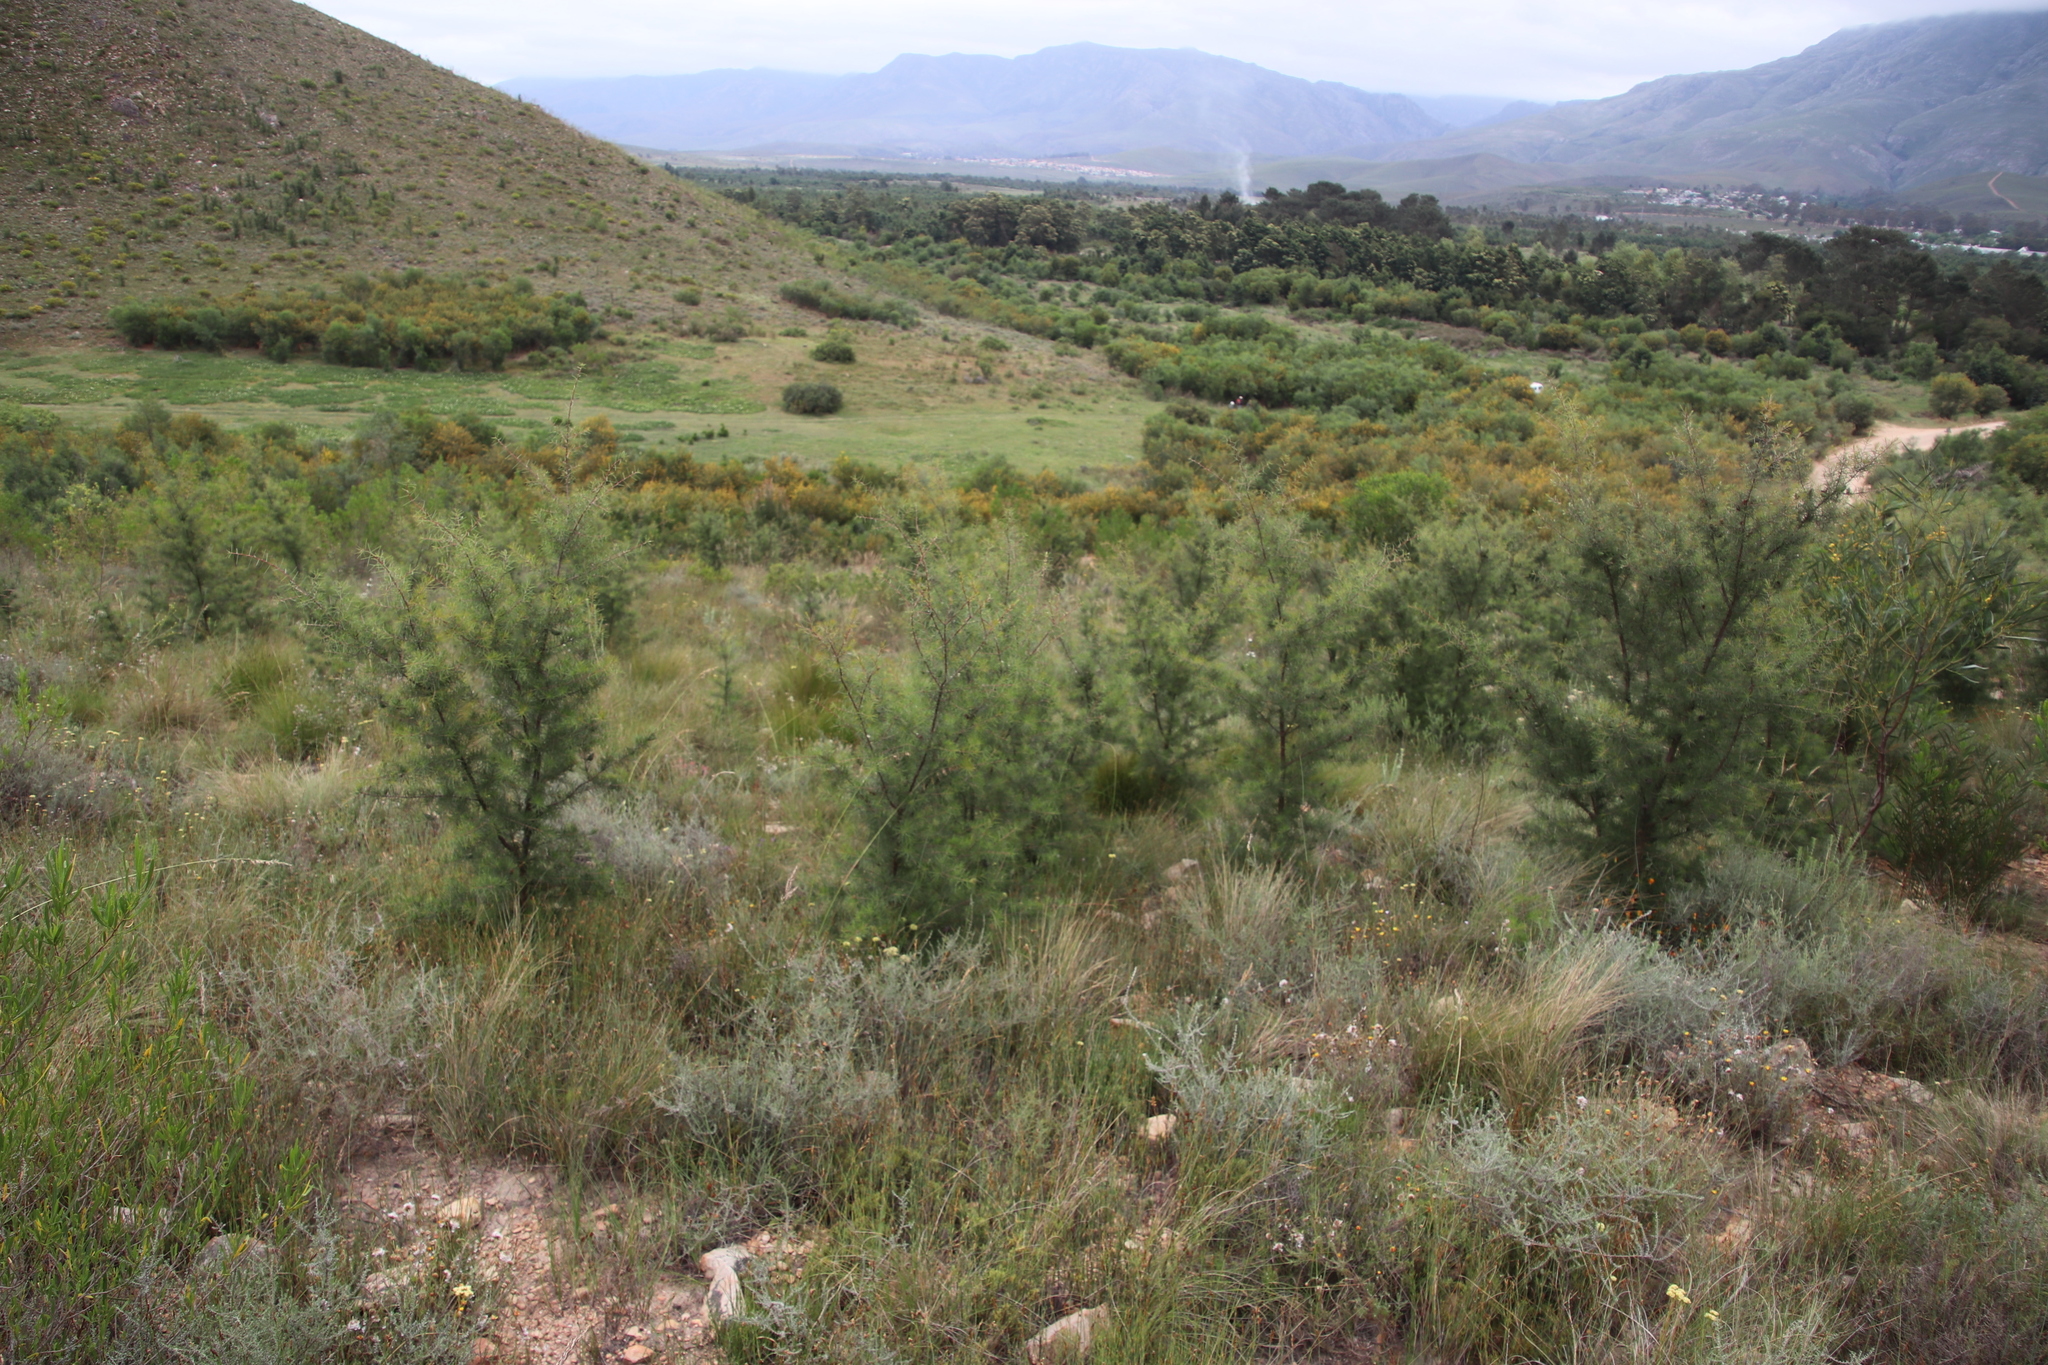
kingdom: Plantae
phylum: Tracheophyta
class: Magnoliopsida
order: Proteales
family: Proteaceae
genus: Hakea
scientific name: Hakea sericea
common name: Needle bush
